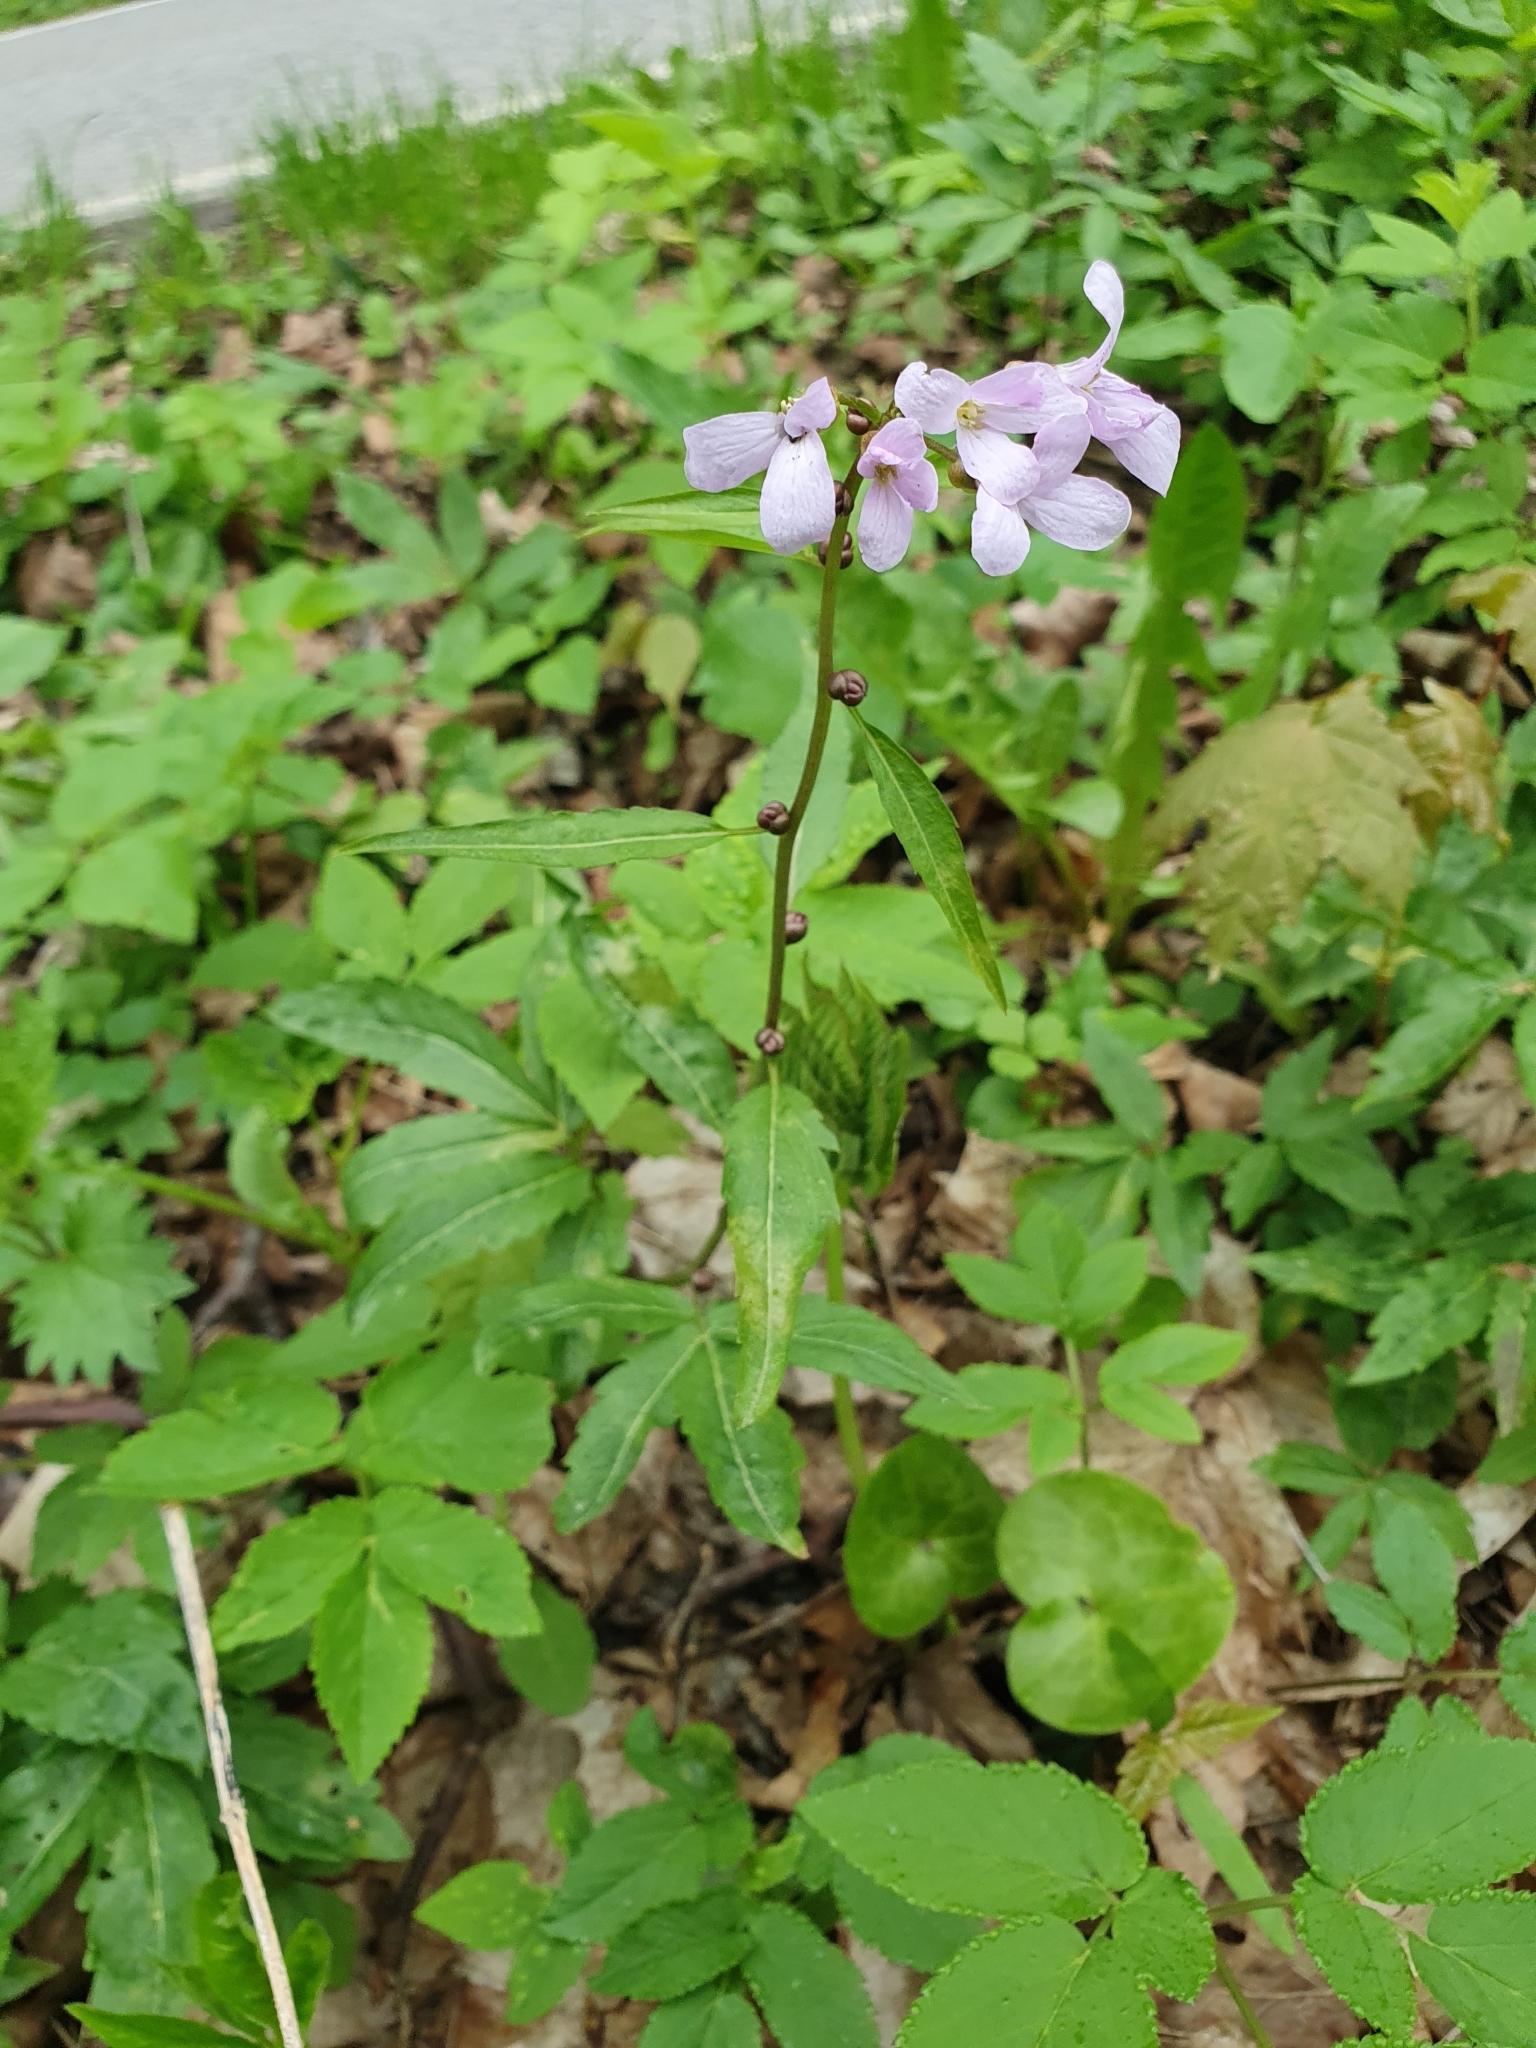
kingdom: Plantae
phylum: Tracheophyta
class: Magnoliopsida
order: Brassicales
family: Brassicaceae
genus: Cardamine
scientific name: Cardamine bulbifera
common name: Coralroot bittercress
